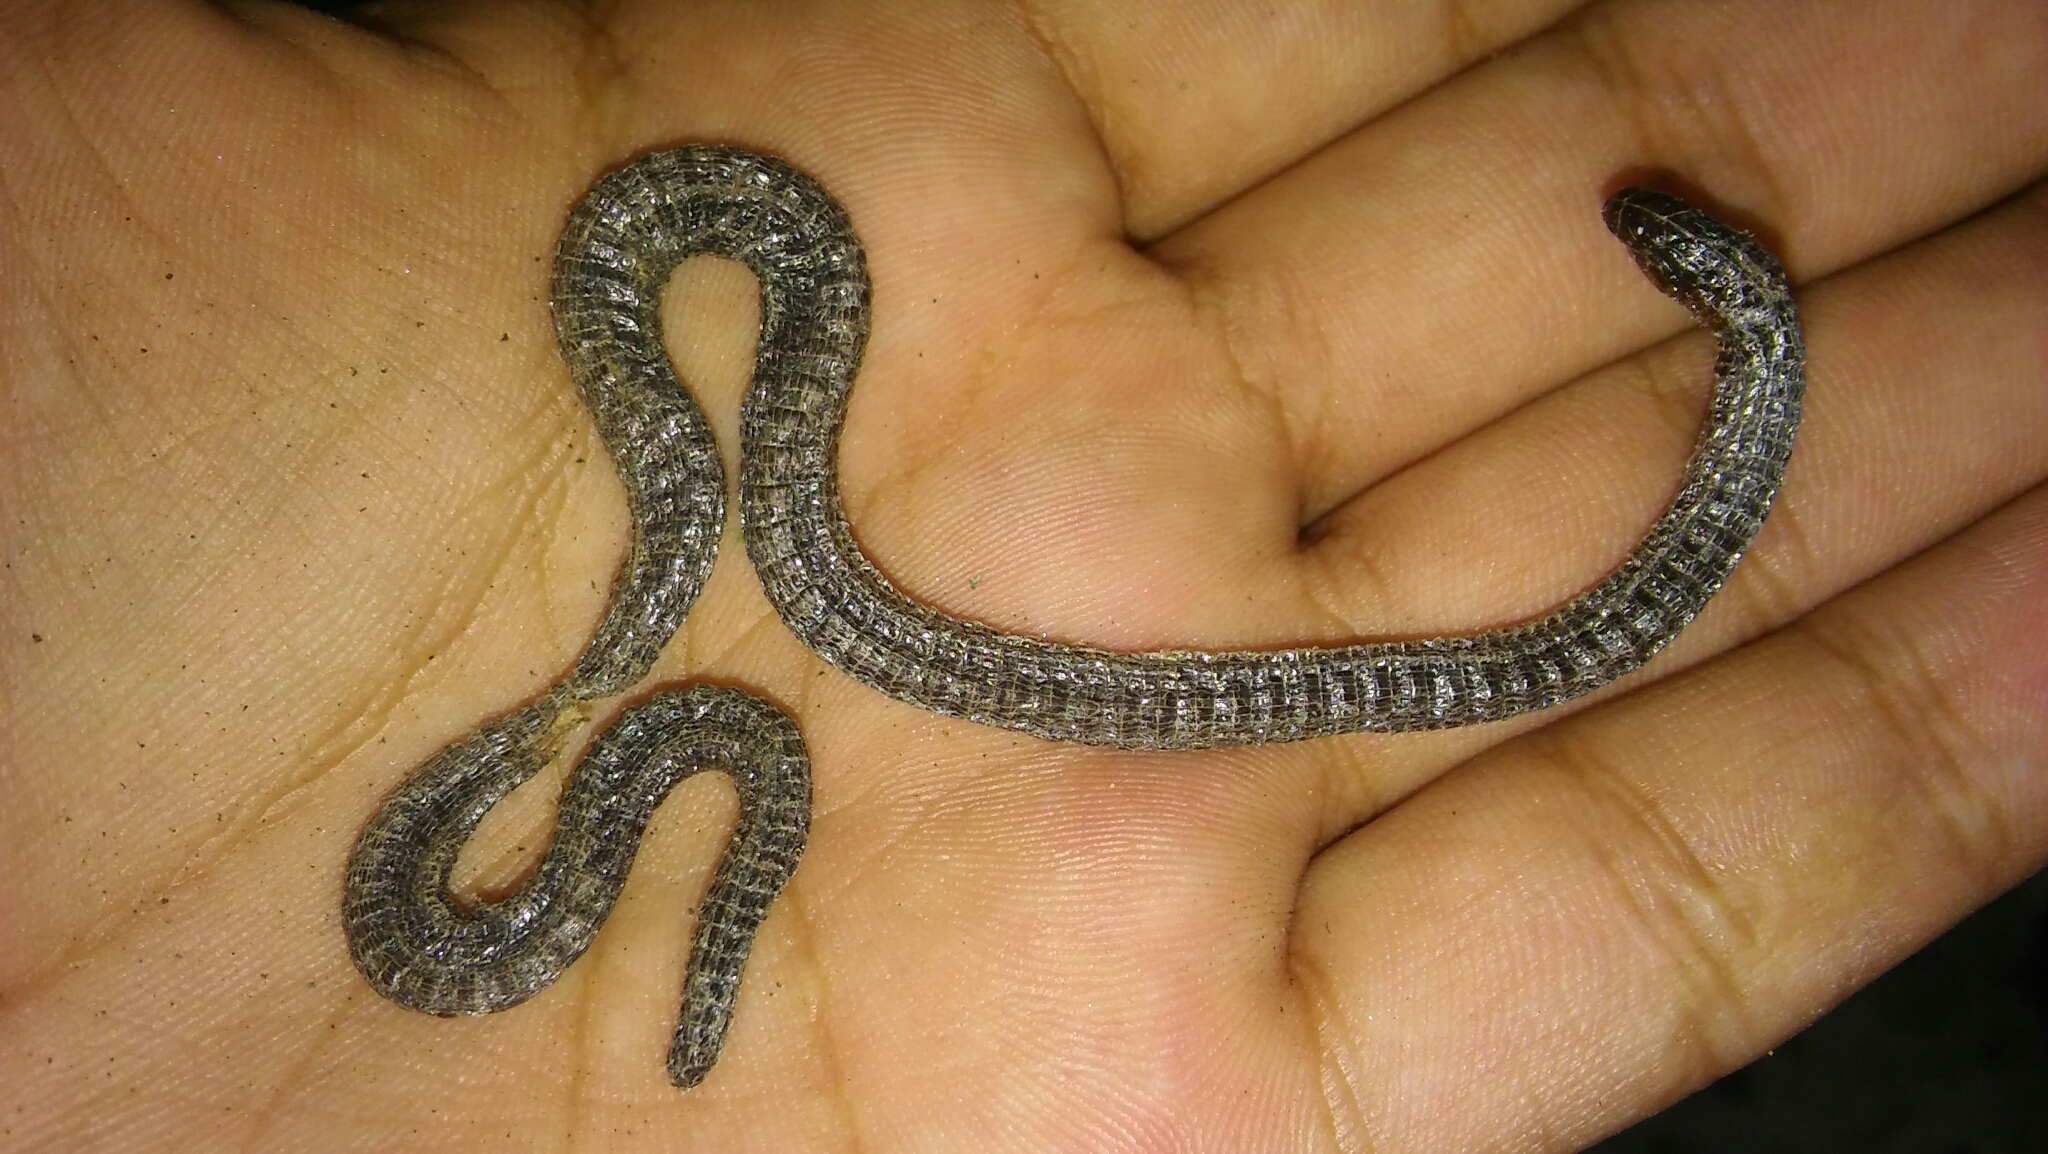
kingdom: Animalia
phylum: Chordata
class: Squamata
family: Amphisbaenidae
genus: Amphisbaena
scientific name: Amphisbaena darwinii
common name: Darwin's ringed worm lizard
